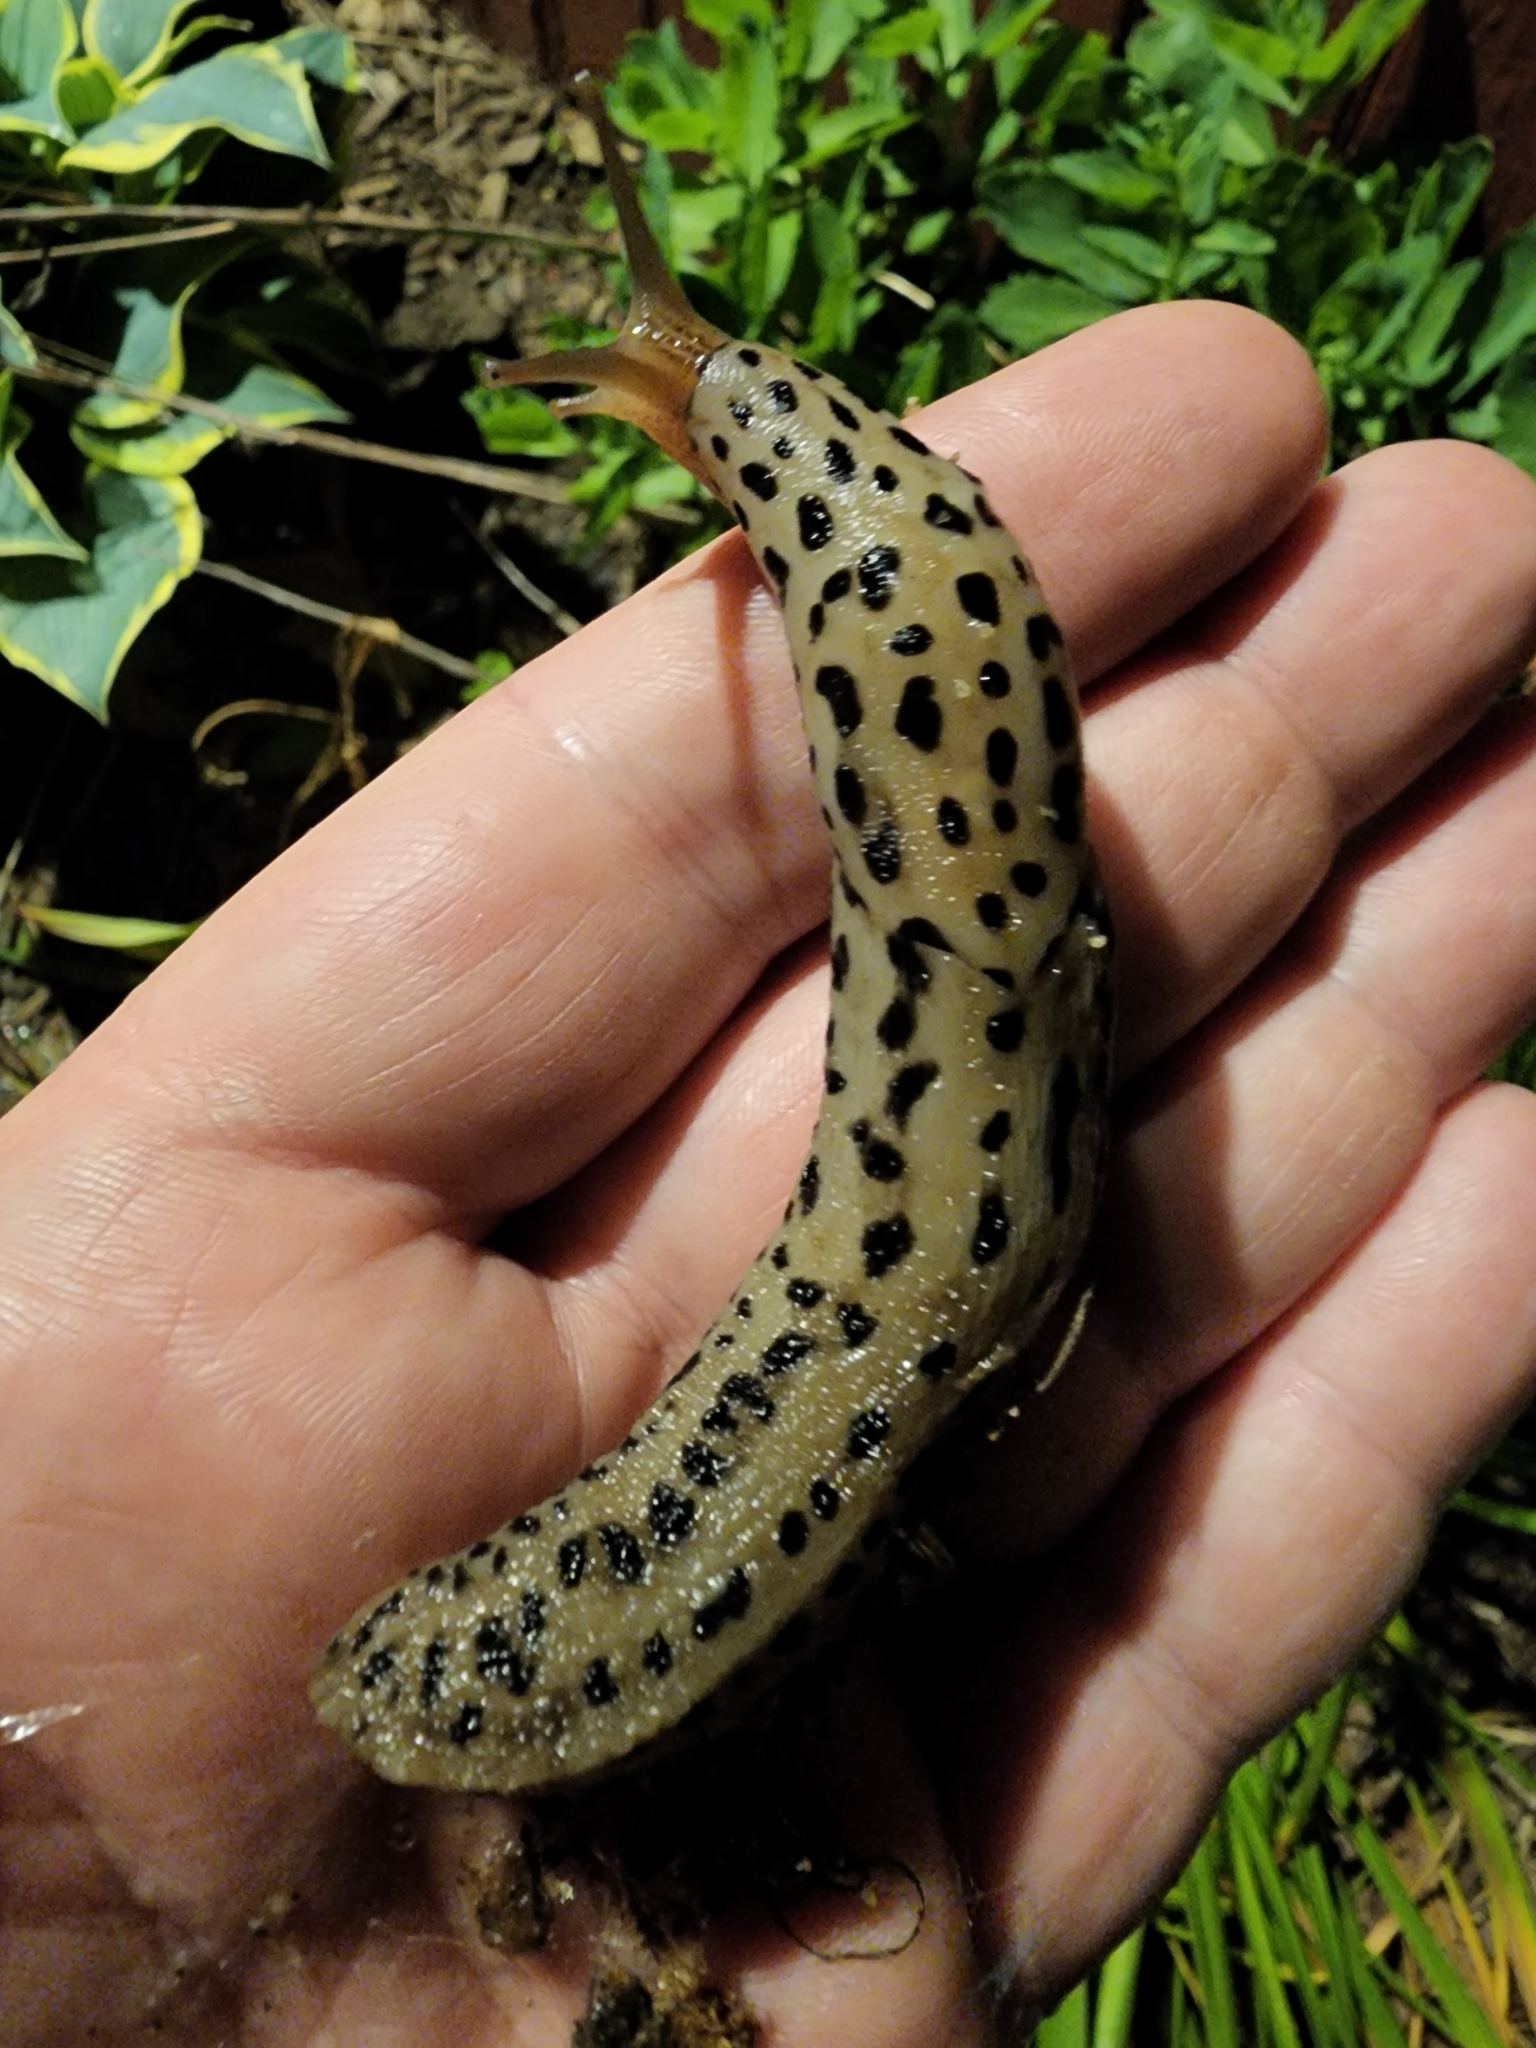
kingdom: Animalia
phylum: Mollusca
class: Gastropoda
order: Stylommatophora
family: Limacidae
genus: Limax
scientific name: Limax maximus
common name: Great grey slug
